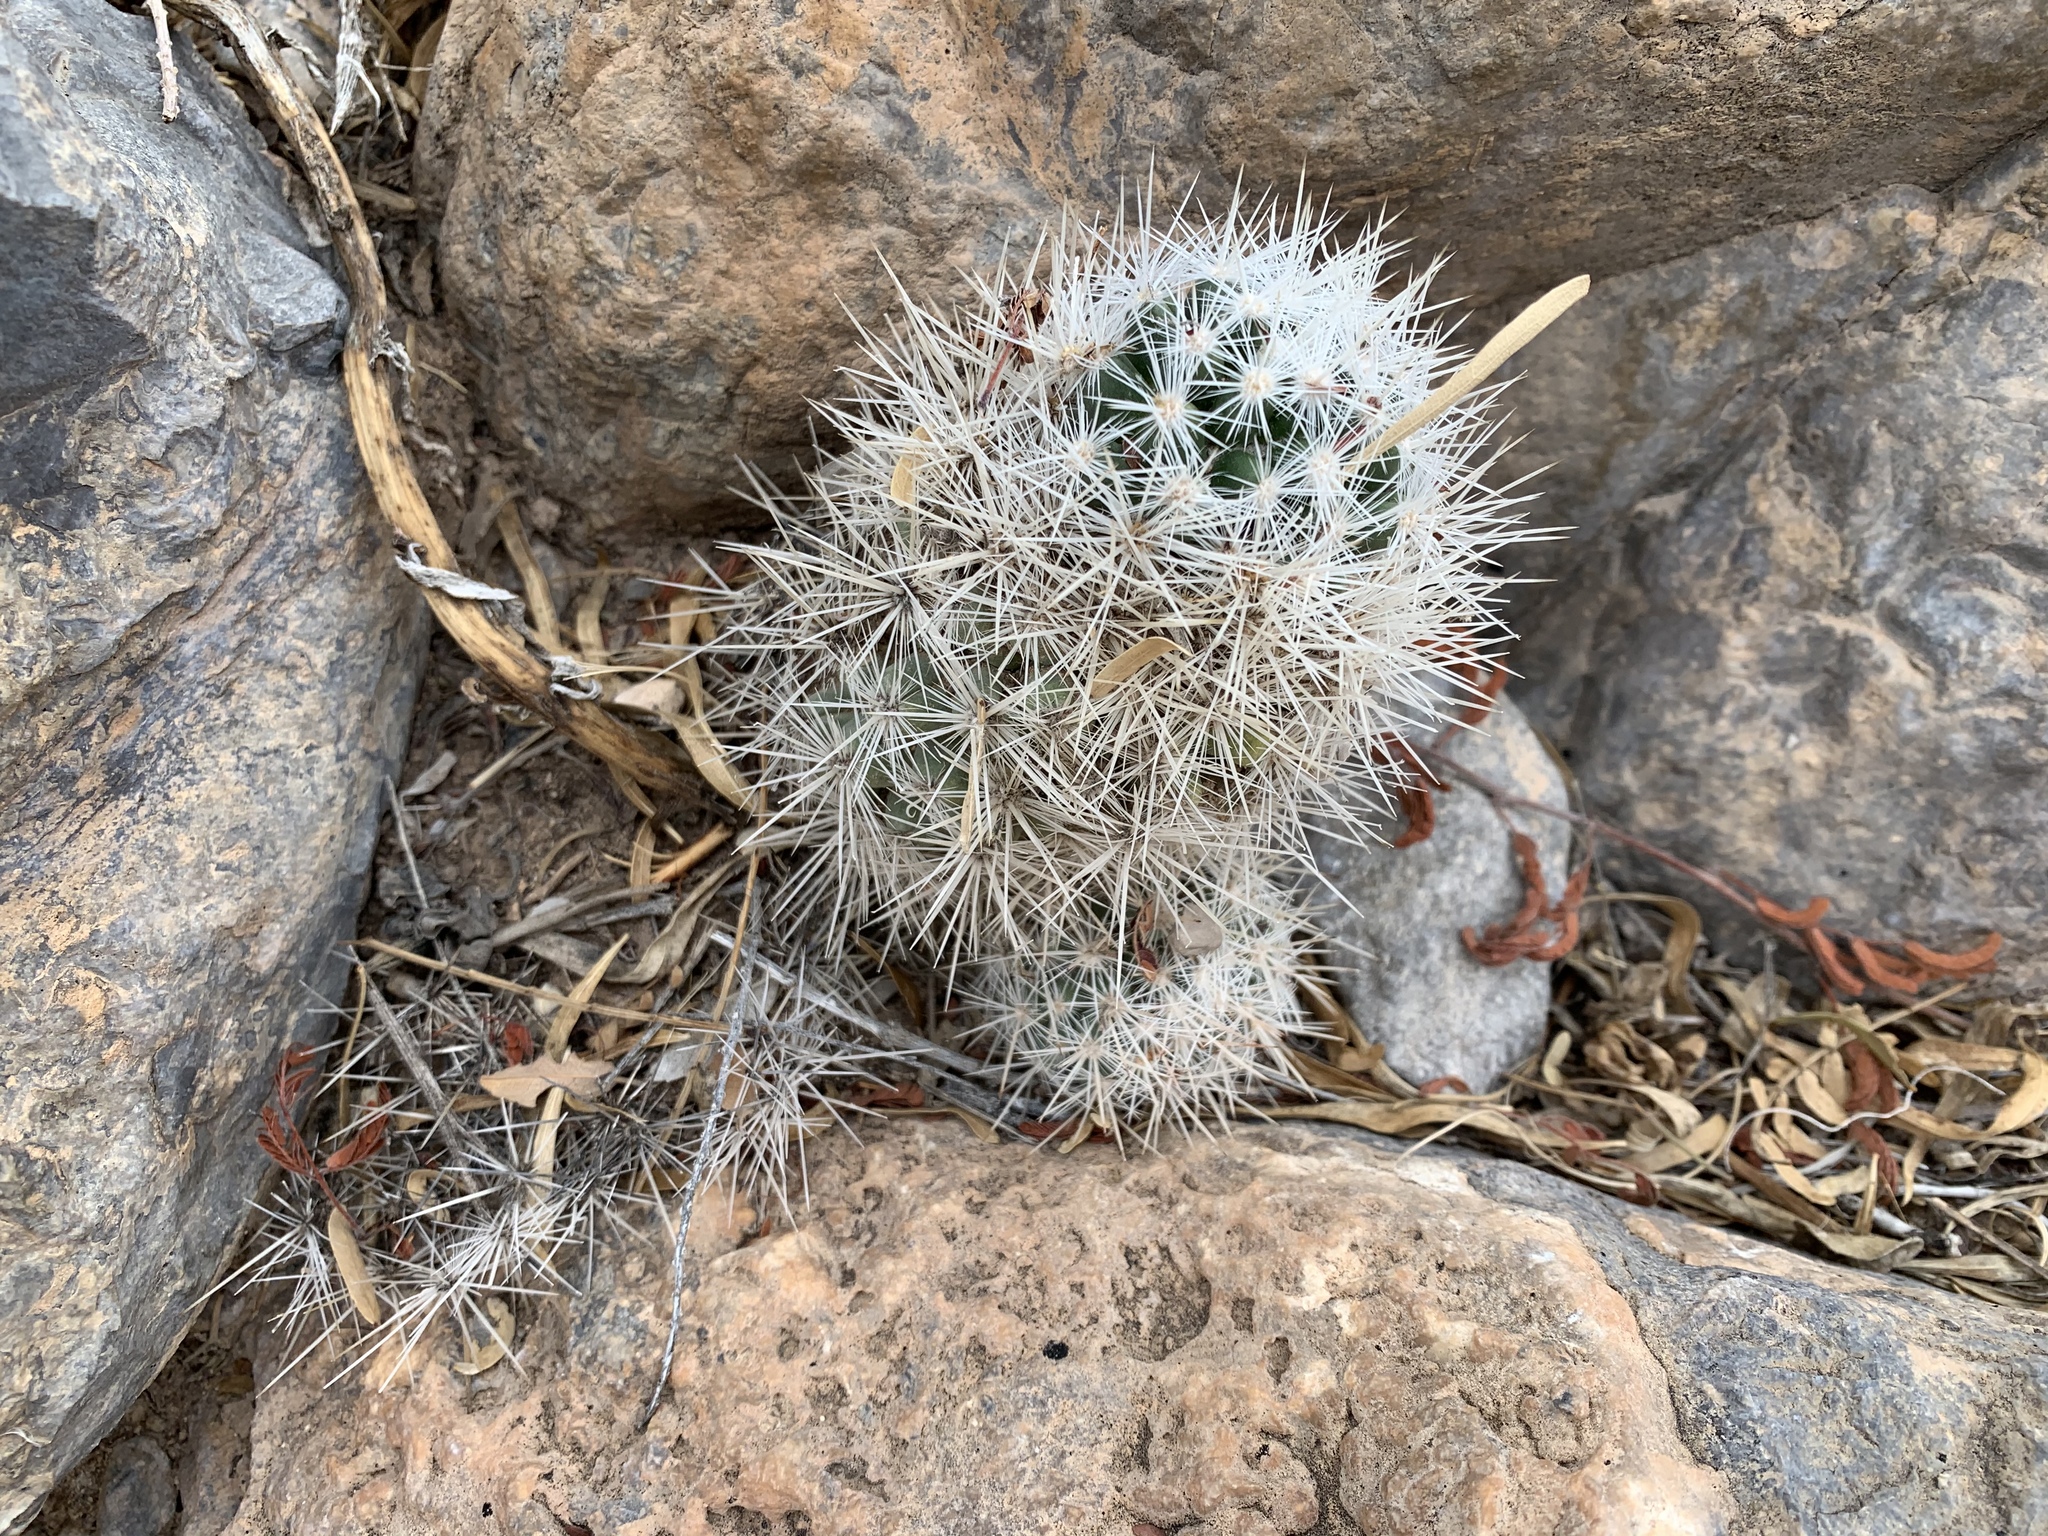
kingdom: Plantae
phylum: Tracheophyta
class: Magnoliopsida
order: Caryophyllales
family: Cactaceae
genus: Pelecyphora
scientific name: Pelecyphora sneedii
